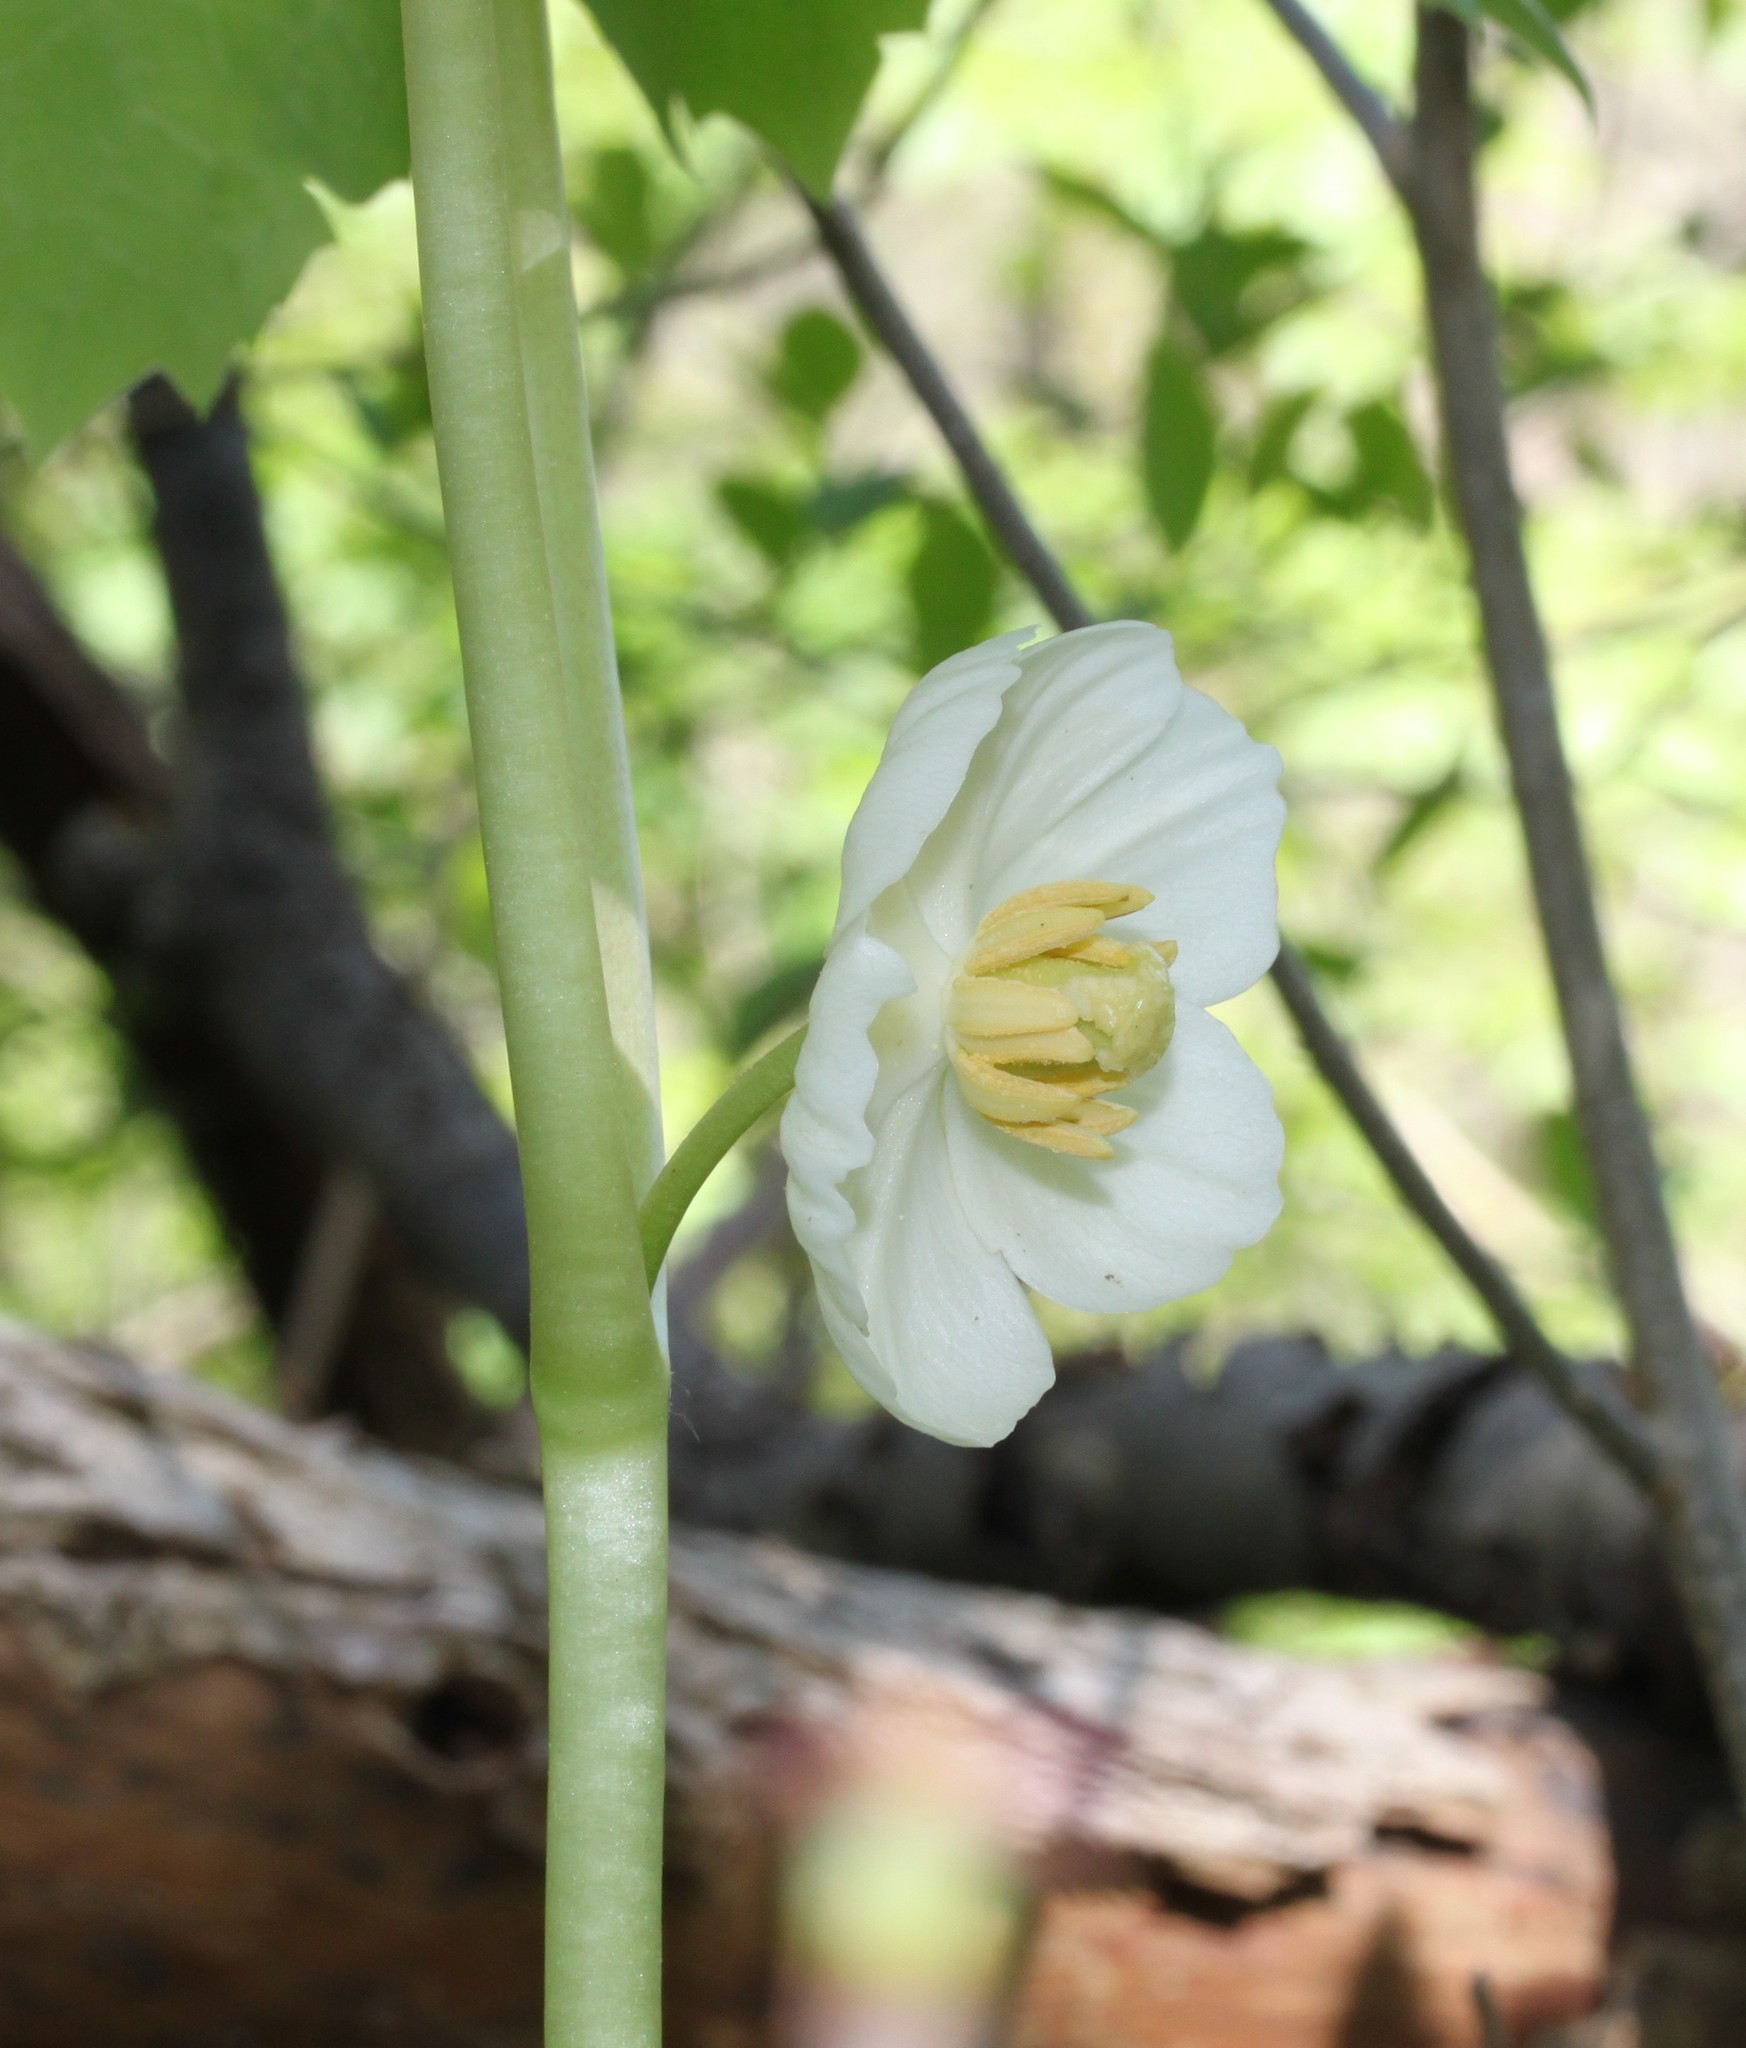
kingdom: Plantae
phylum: Tracheophyta
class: Magnoliopsida
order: Ranunculales
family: Berberidaceae
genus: Podophyllum
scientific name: Podophyllum peltatum
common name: Wild mandrake
